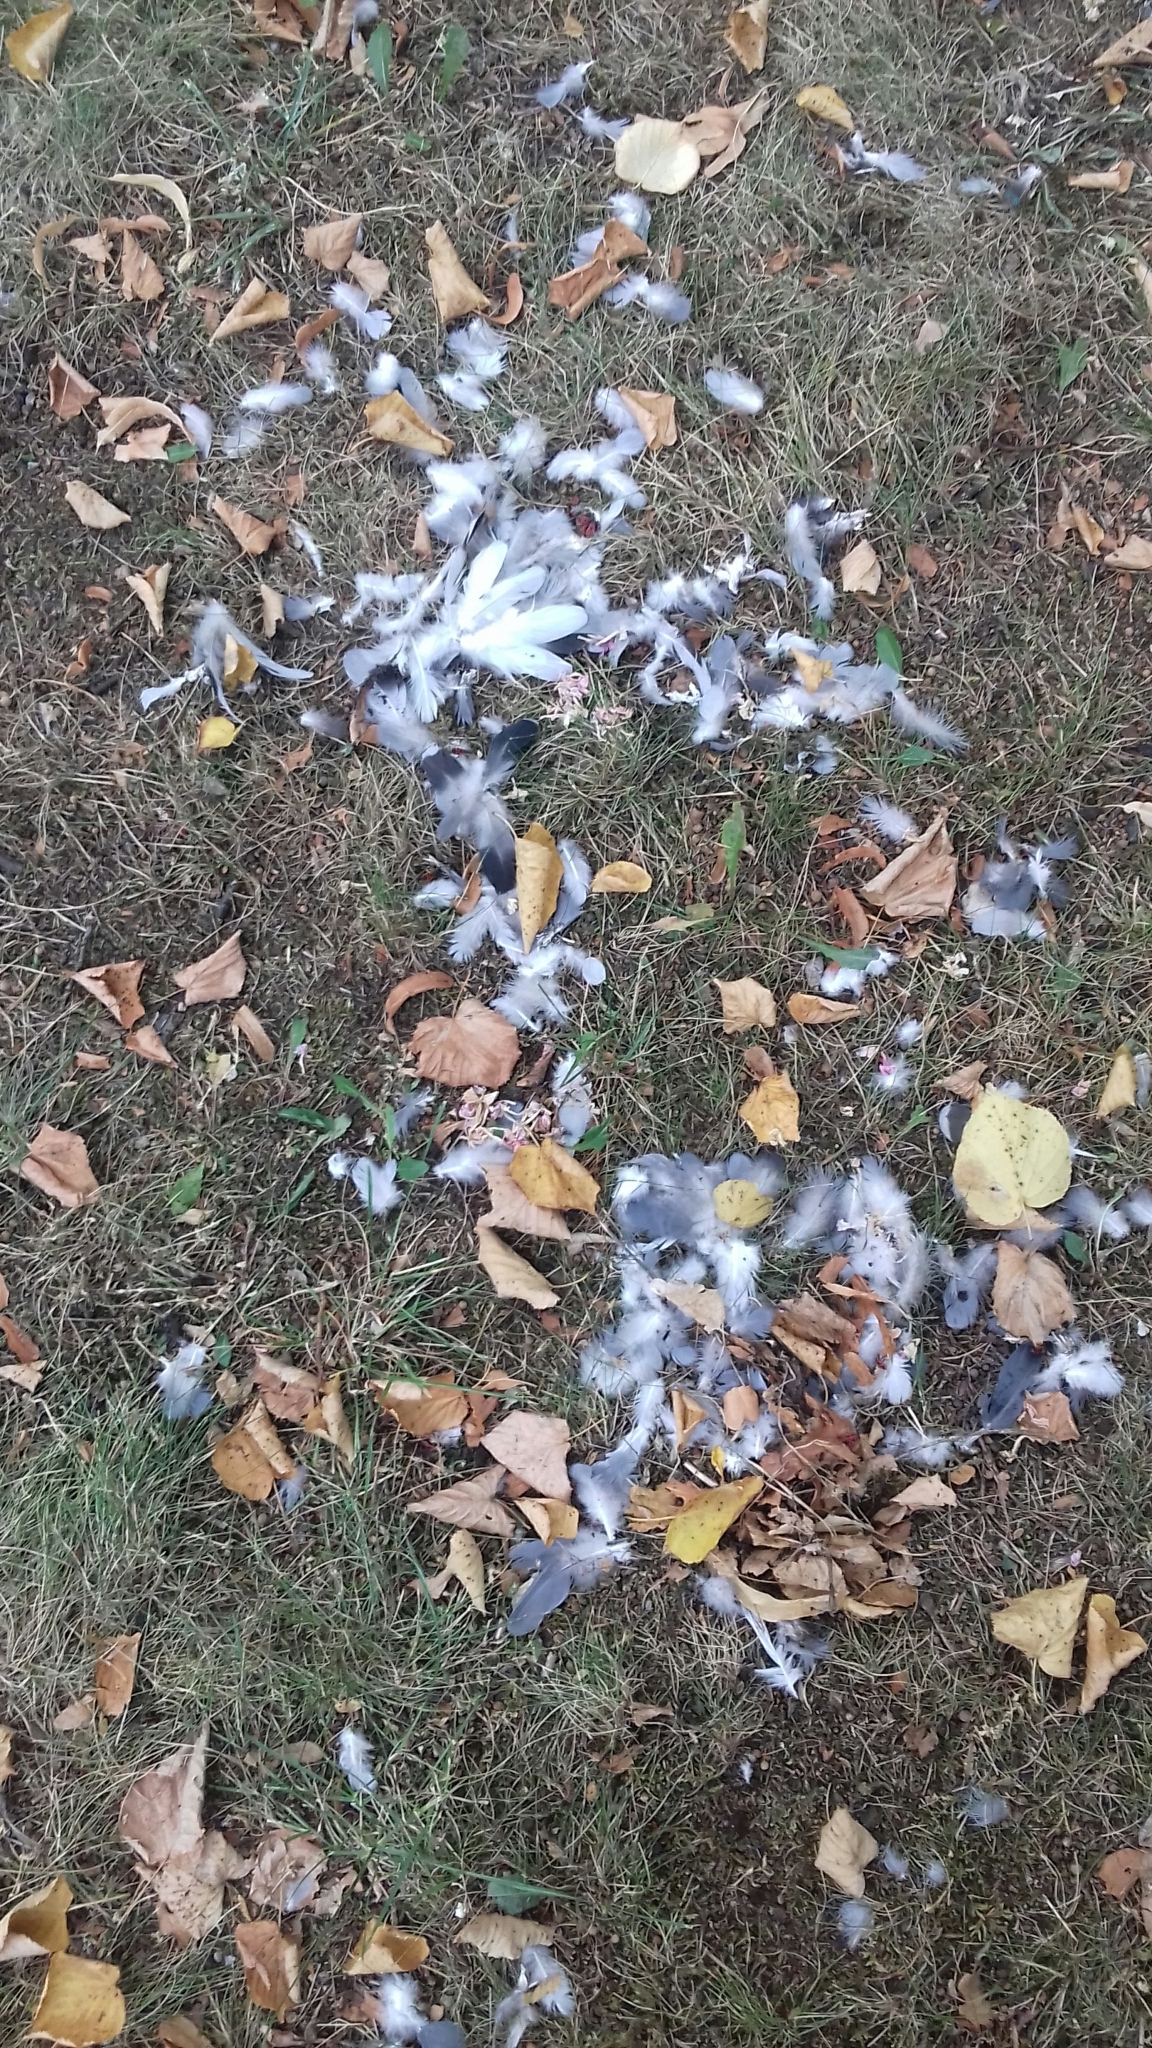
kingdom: Animalia
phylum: Chordata
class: Aves
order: Columbiformes
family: Columbidae
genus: Columba
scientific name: Columba livia
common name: Rock pigeon
